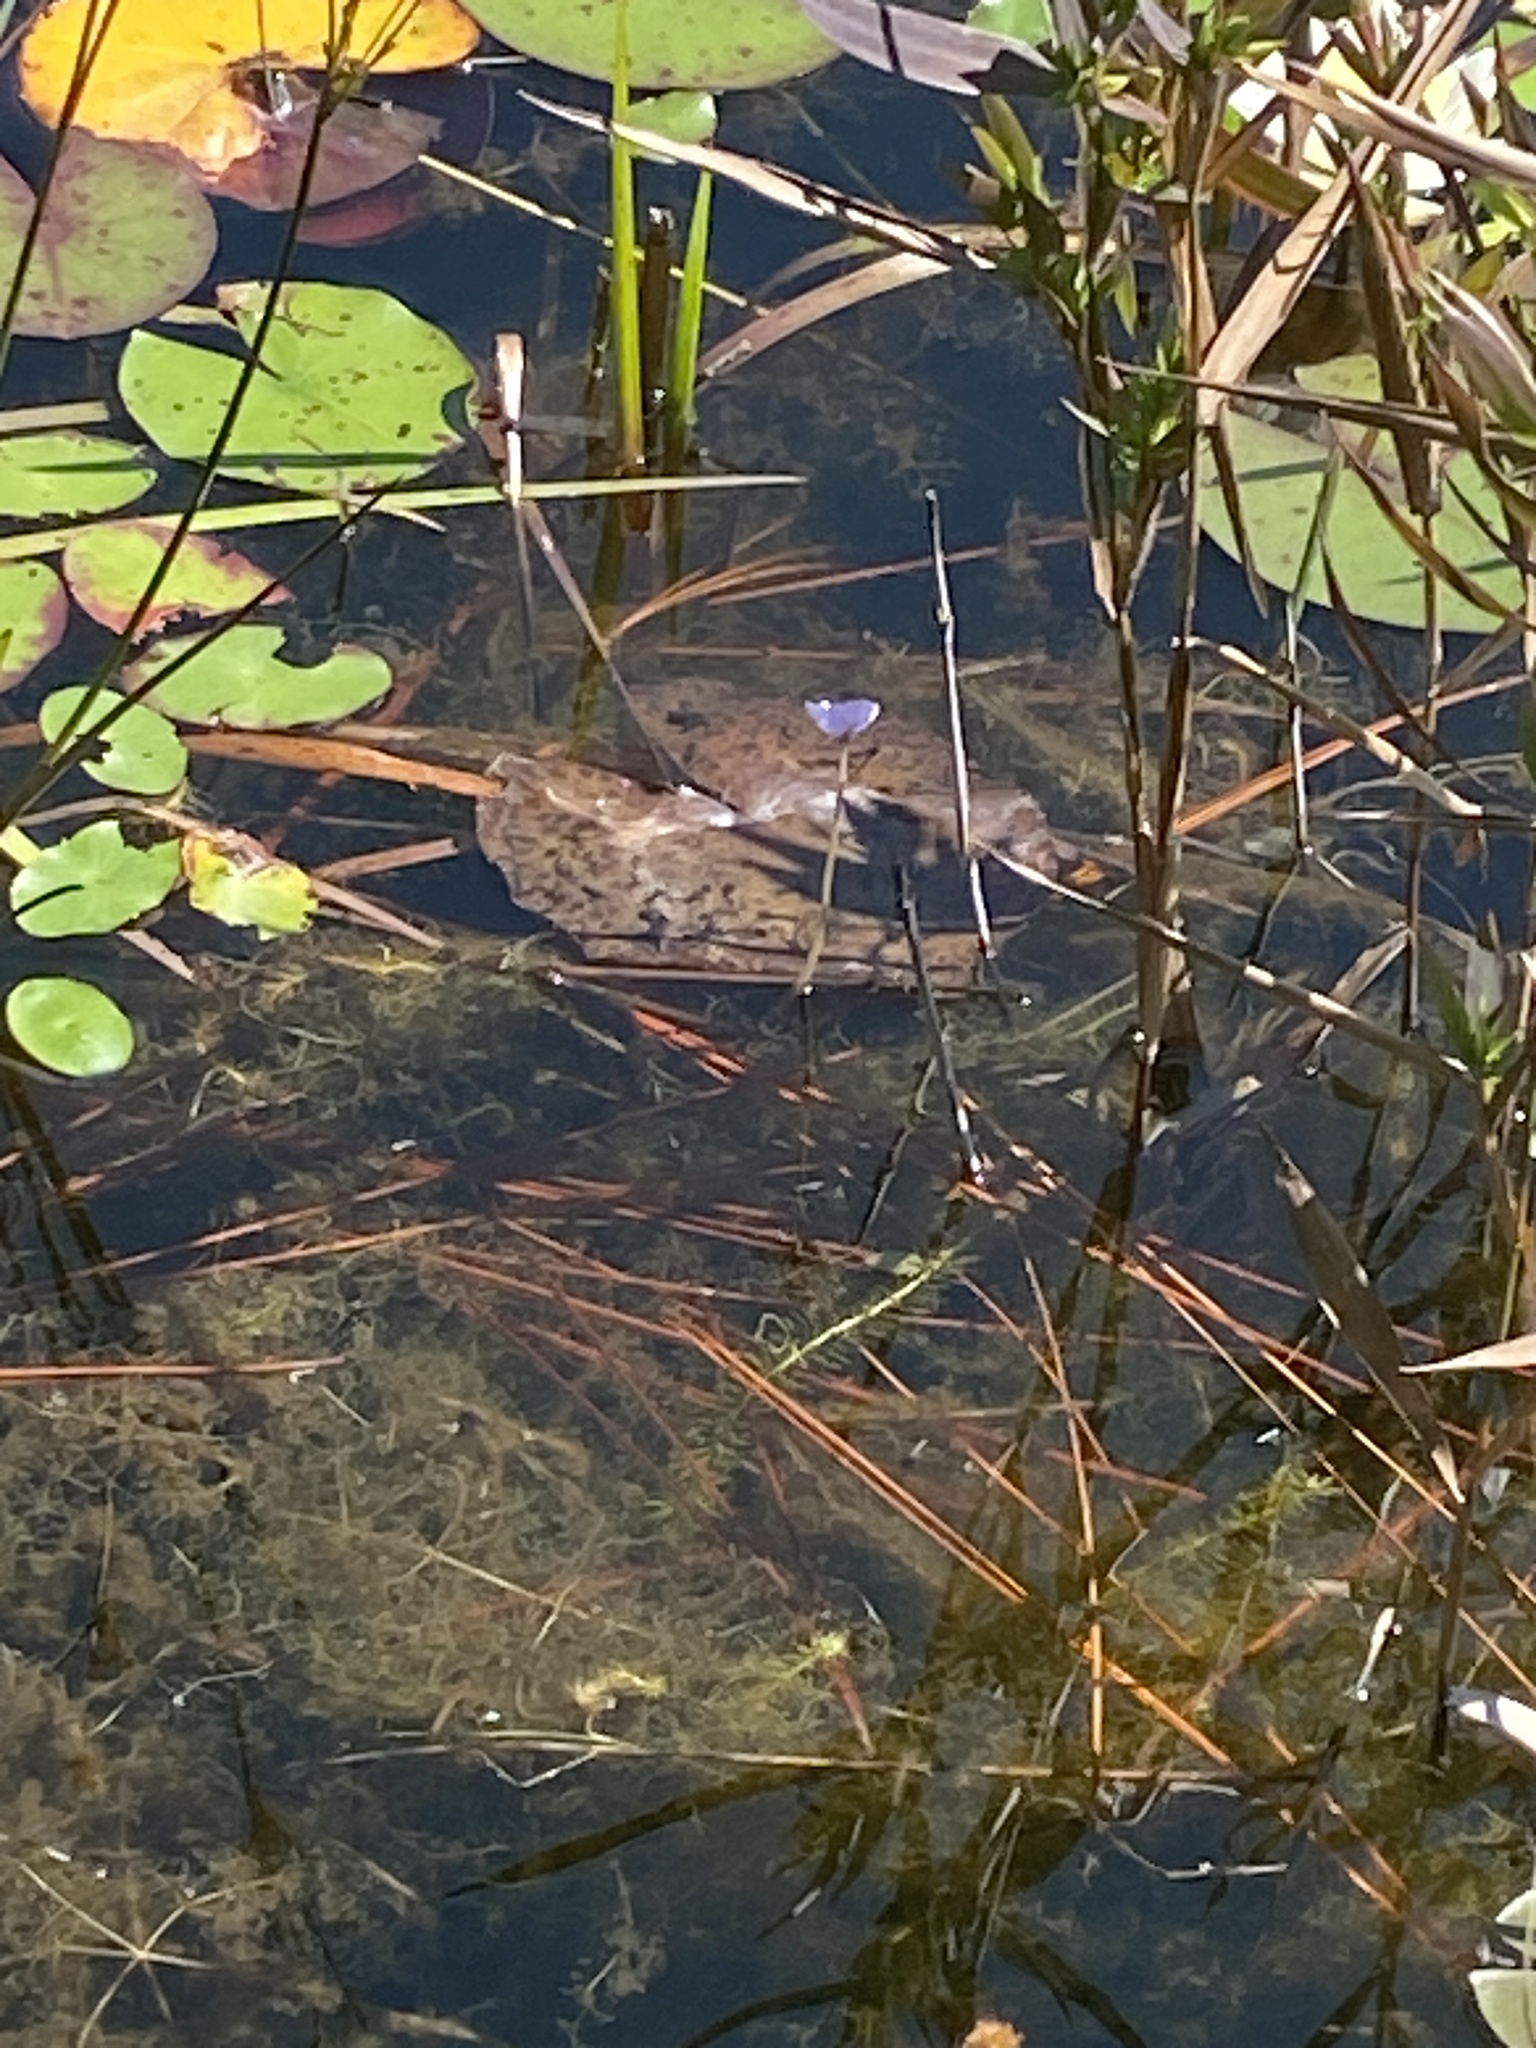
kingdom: Plantae
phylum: Tracheophyta
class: Magnoliopsida
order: Lamiales
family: Lentibulariaceae
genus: Utricularia
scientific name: Utricularia purpurea
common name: Eastern purple bladderwort
